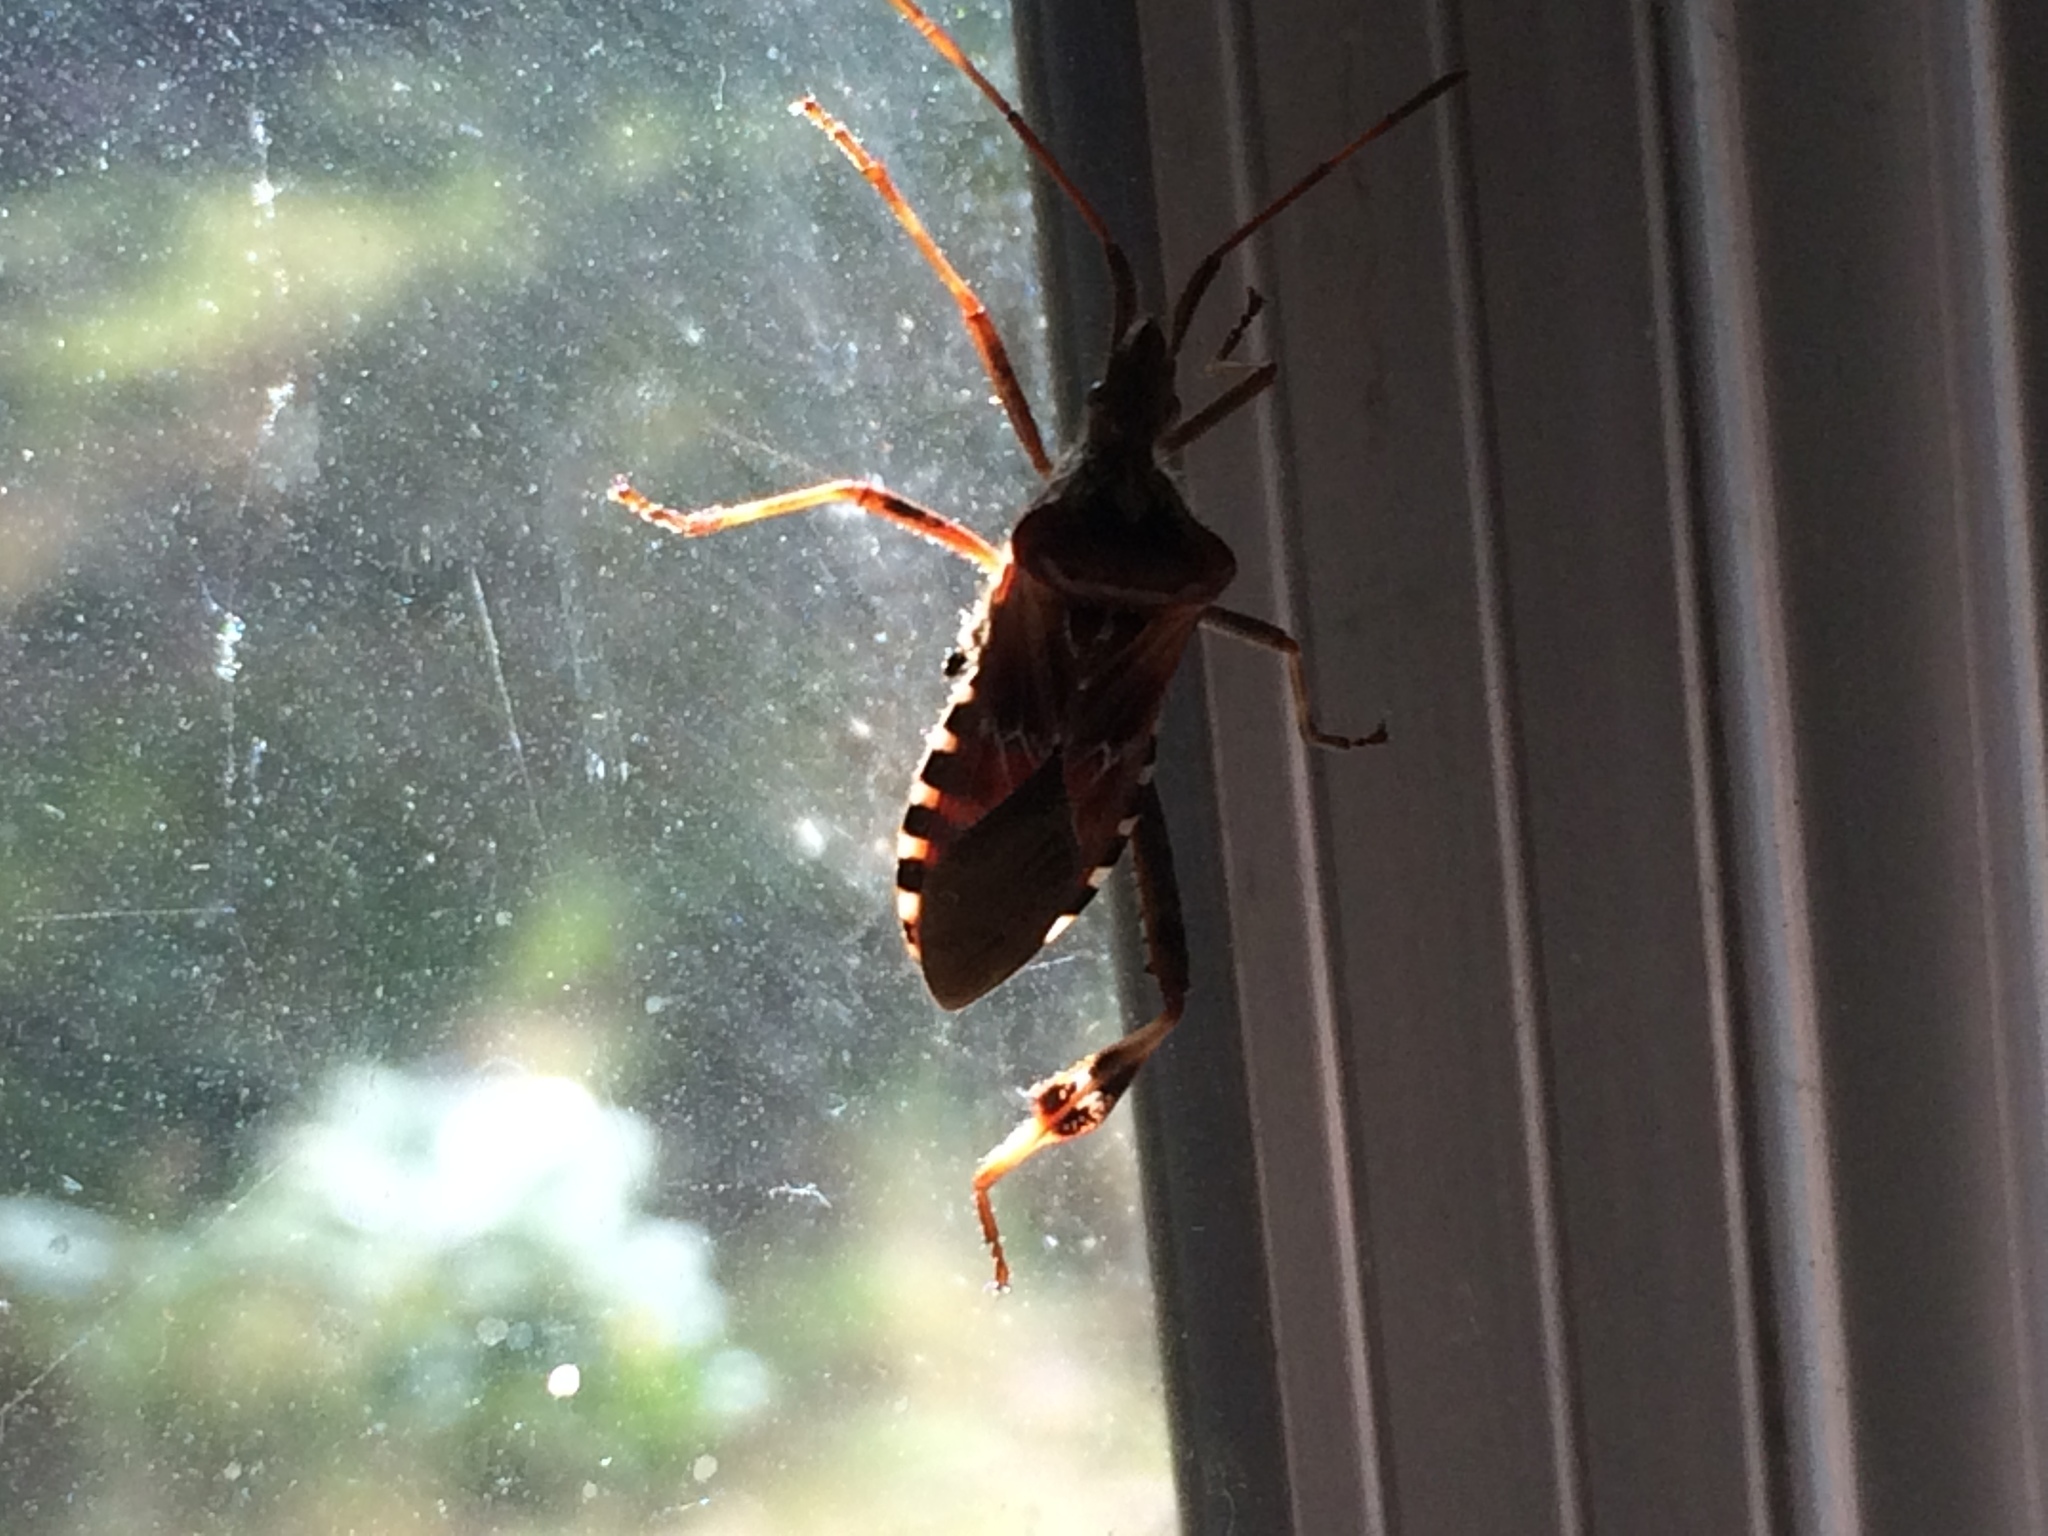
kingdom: Animalia
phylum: Arthropoda
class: Insecta
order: Hemiptera
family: Coreidae
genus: Leptoglossus
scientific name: Leptoglossus occidentalis
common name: Western conifer-seed bug
